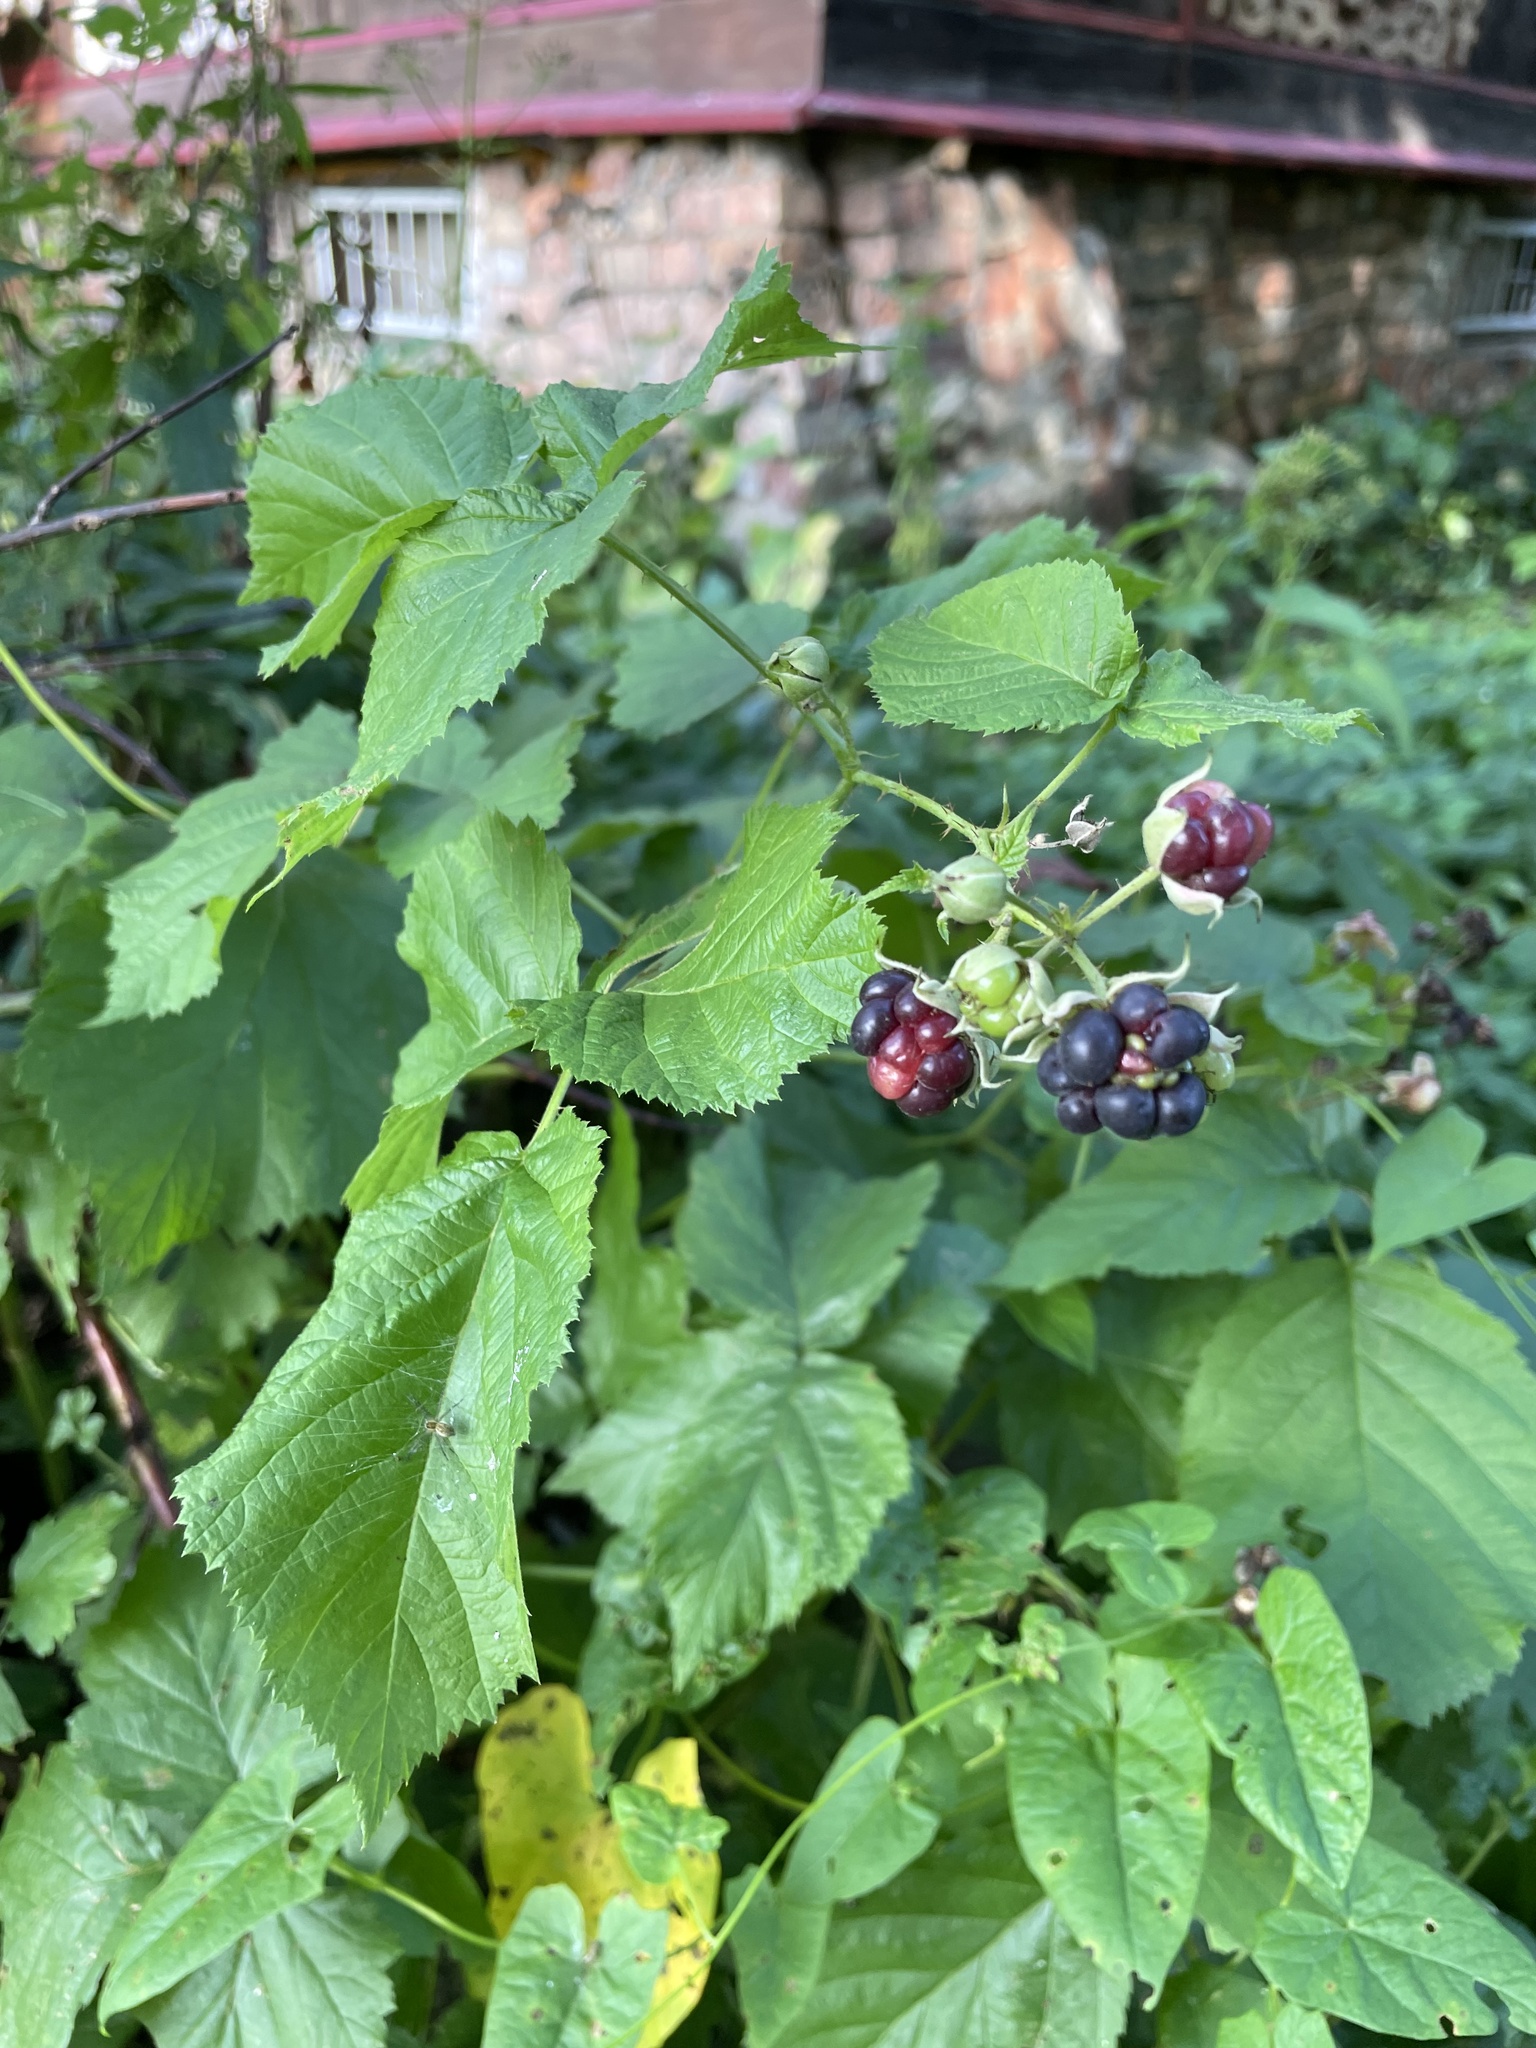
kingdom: Plantae
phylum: Tracheophyta
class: Magnoliopsida
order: Rosales
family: Rosaceae
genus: Rubus
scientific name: Rubus caesius
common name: Dewberry
